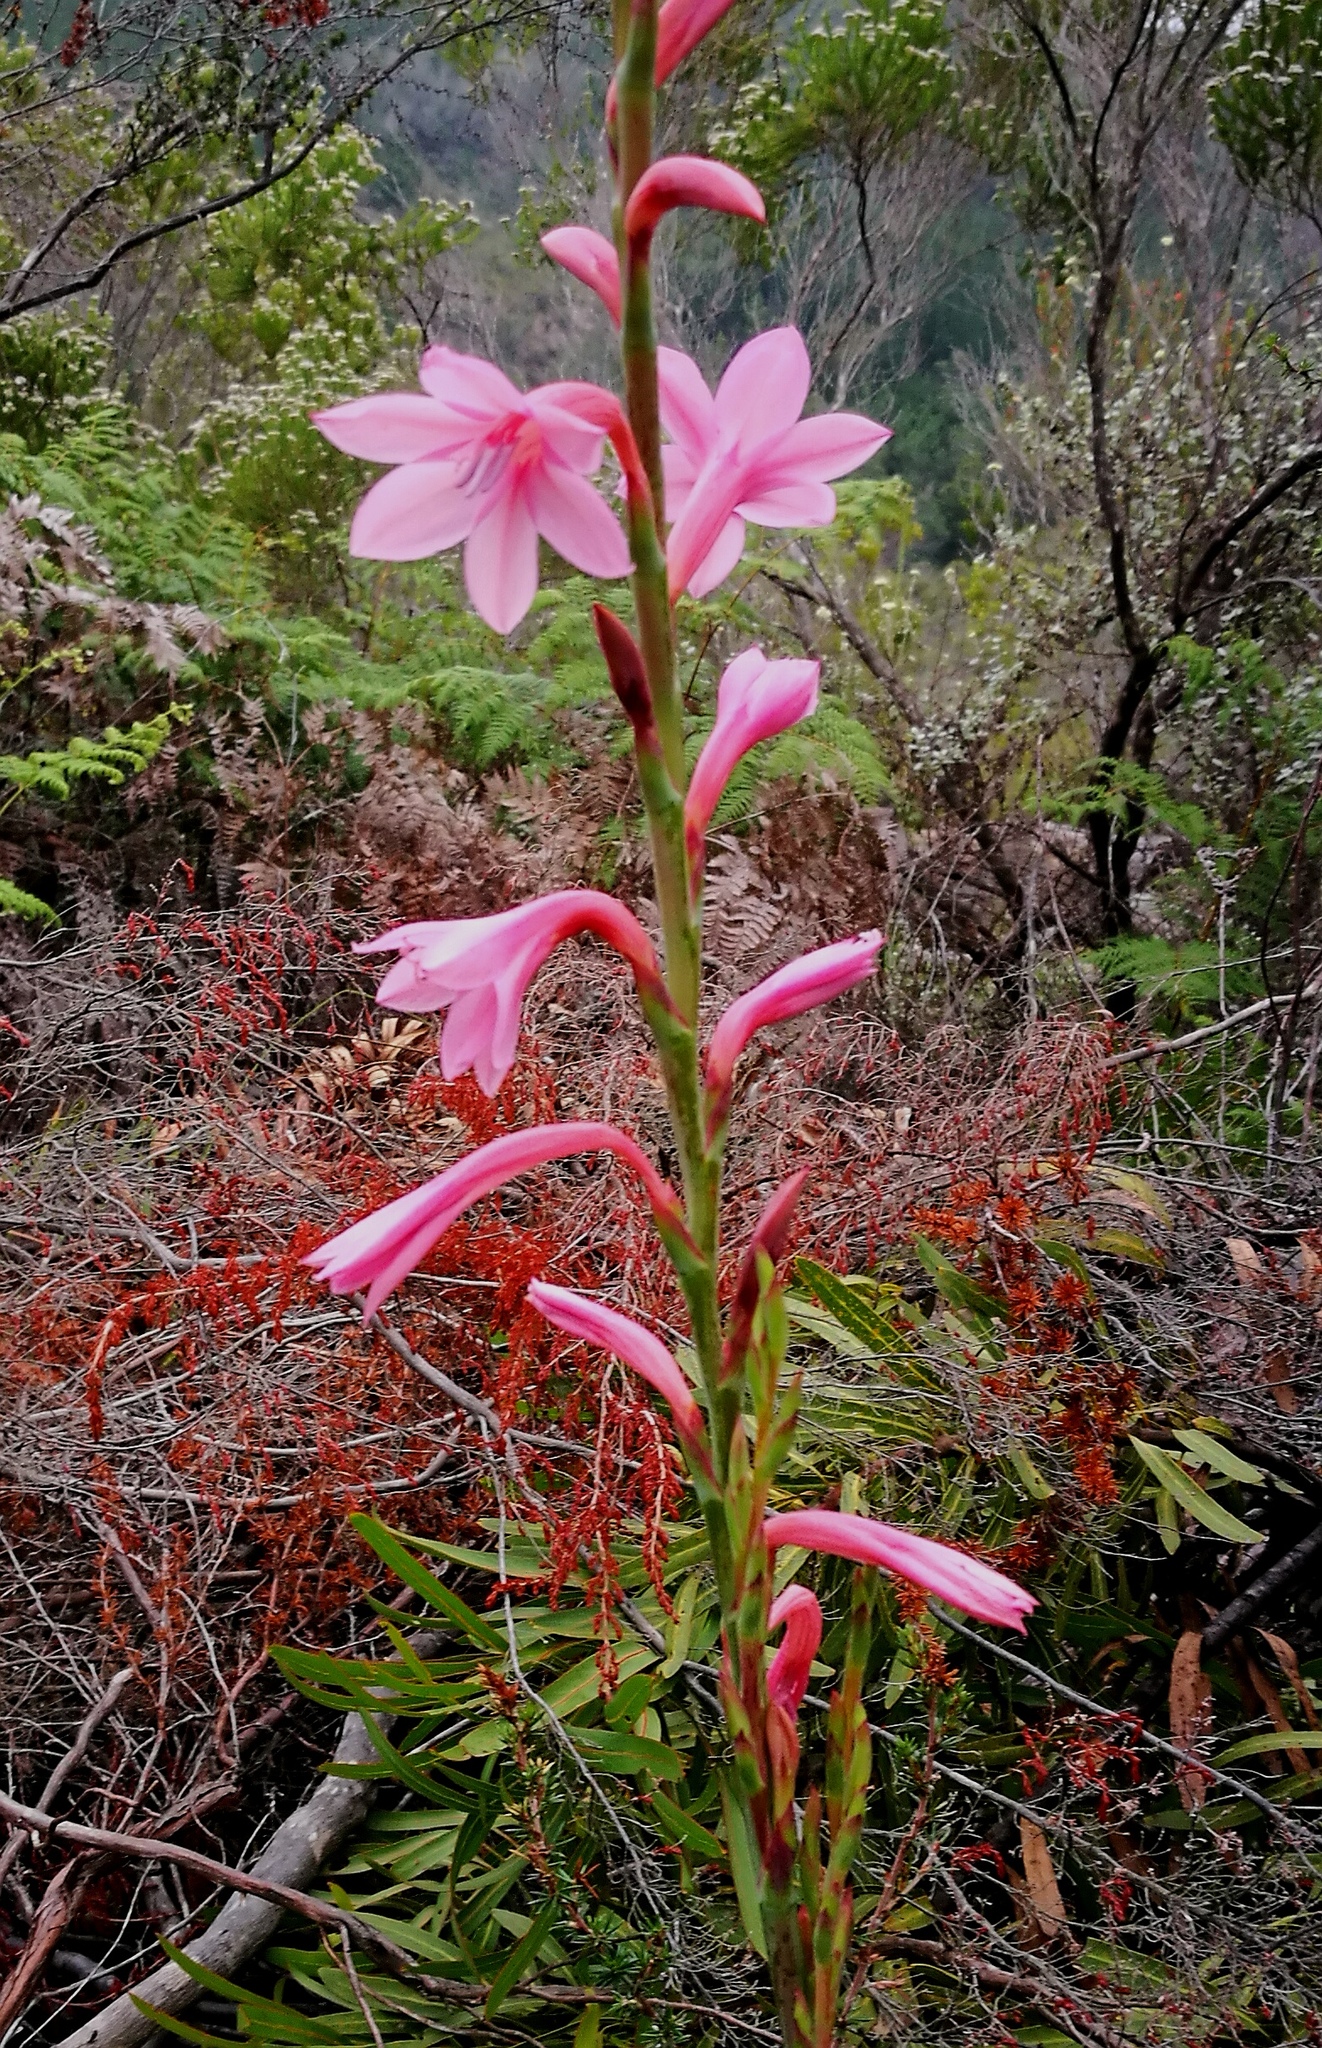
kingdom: Plantae
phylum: Tracheophyta
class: Liliopsida
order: Asparagales
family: Iridaceae
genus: Watsonia
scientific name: Watsonia knysnana
